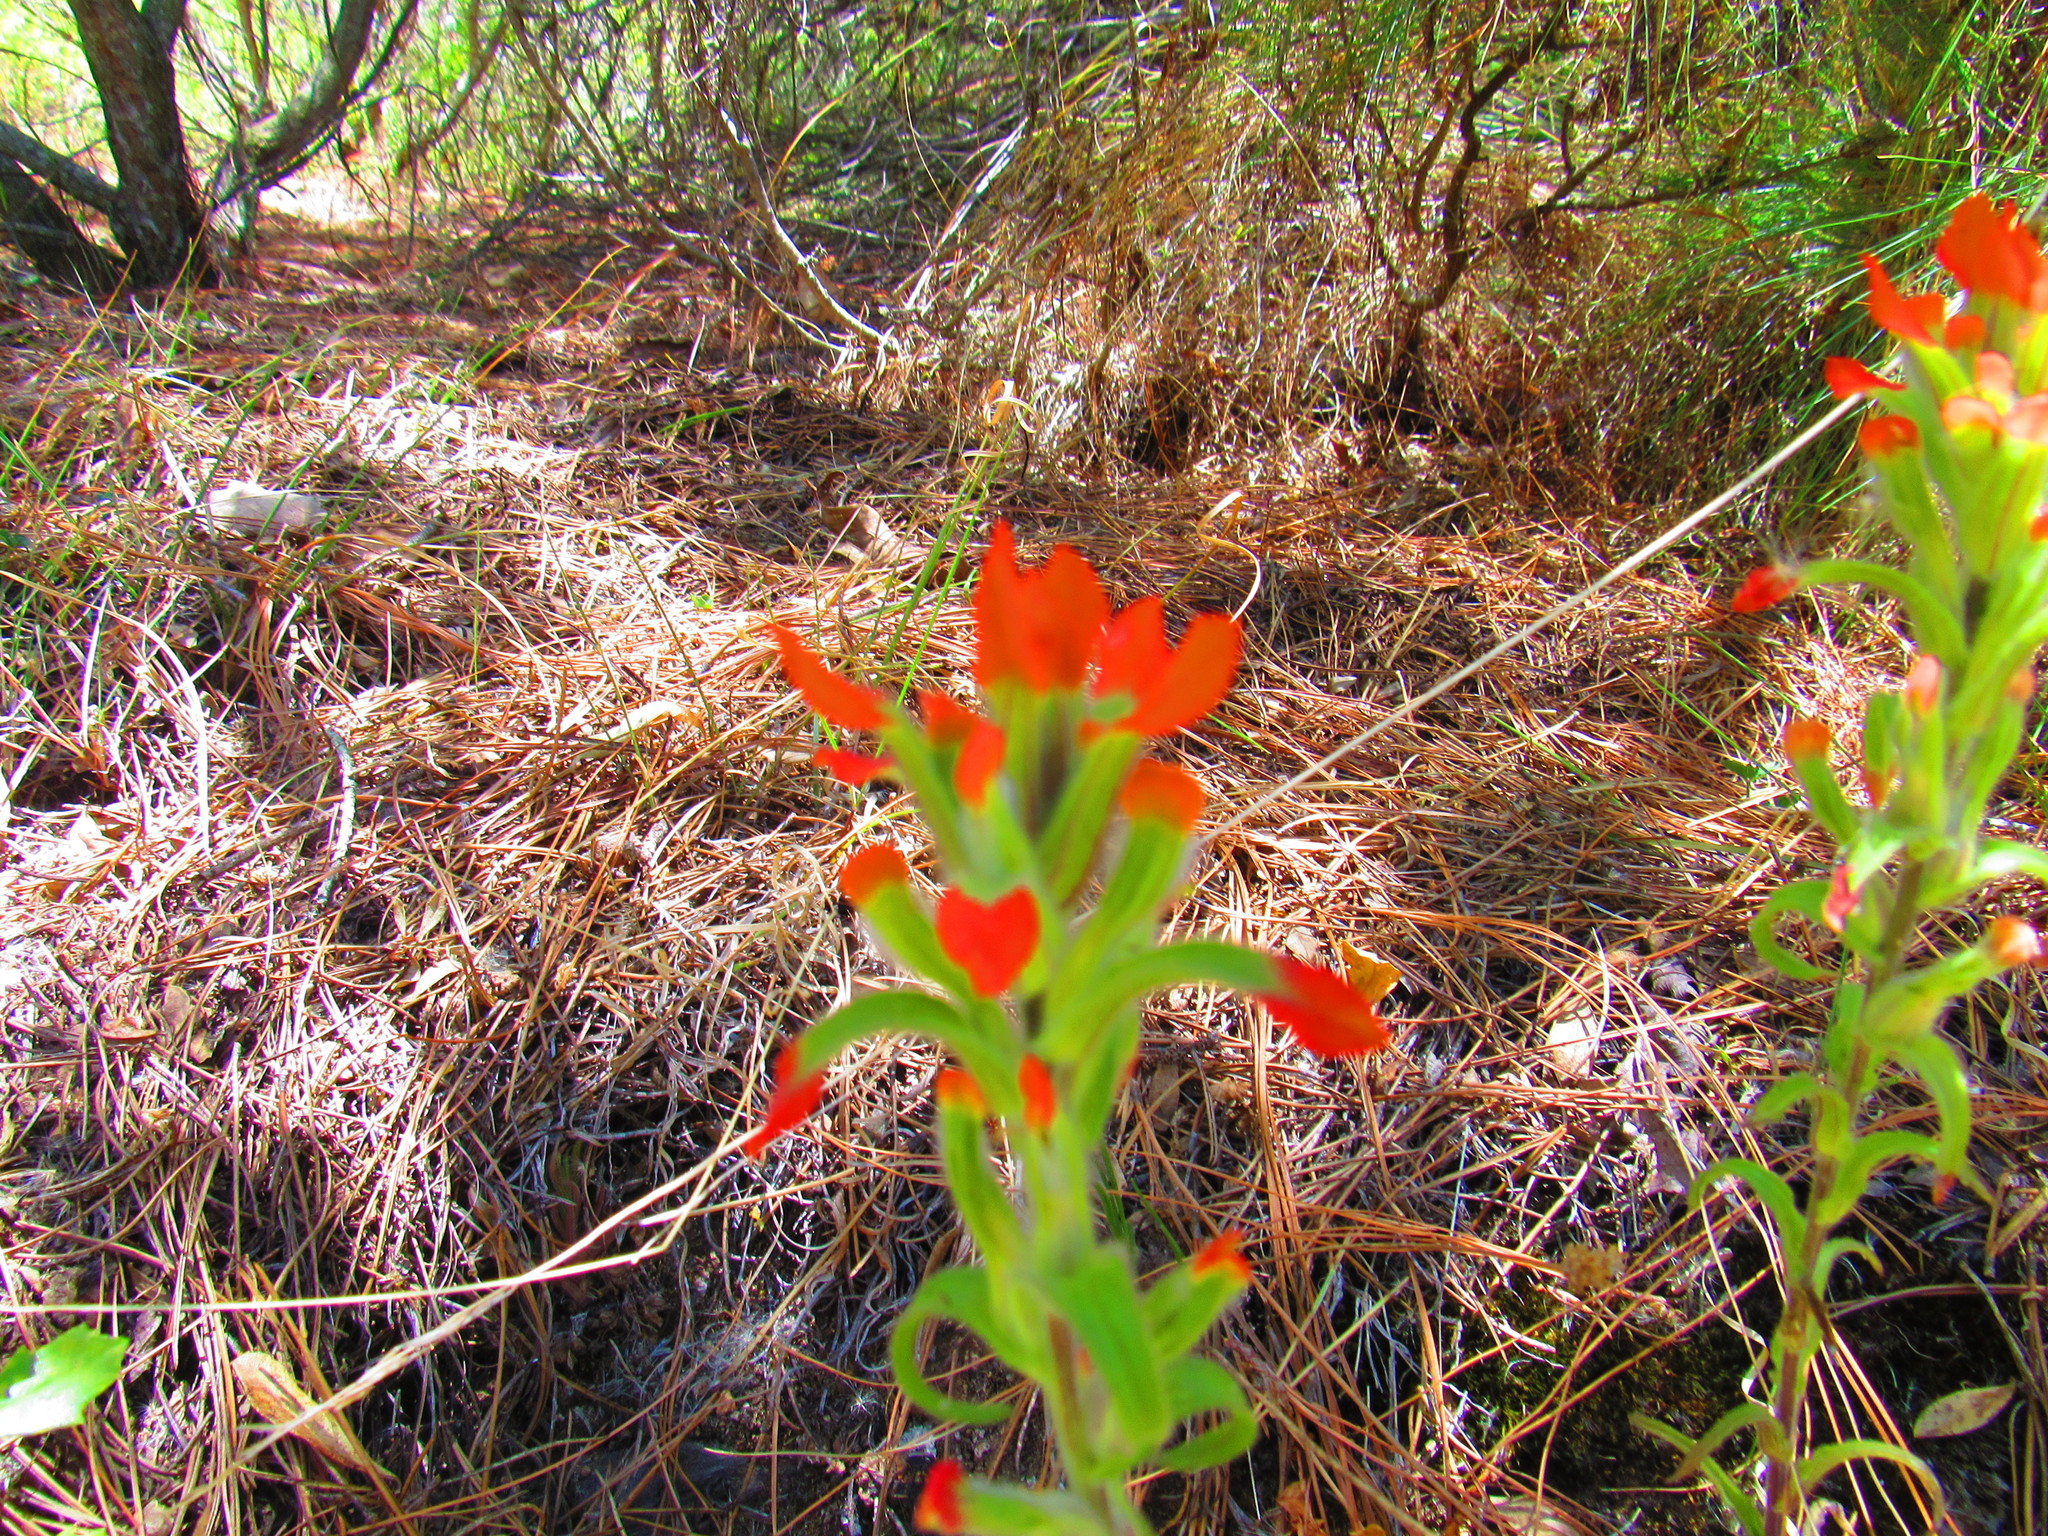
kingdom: Plantae
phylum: Tracheophyta
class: Magnoliopsida
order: Lamiales
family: Orobanchaceae
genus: Castilleja
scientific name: Castilleja scorzonerifolia
